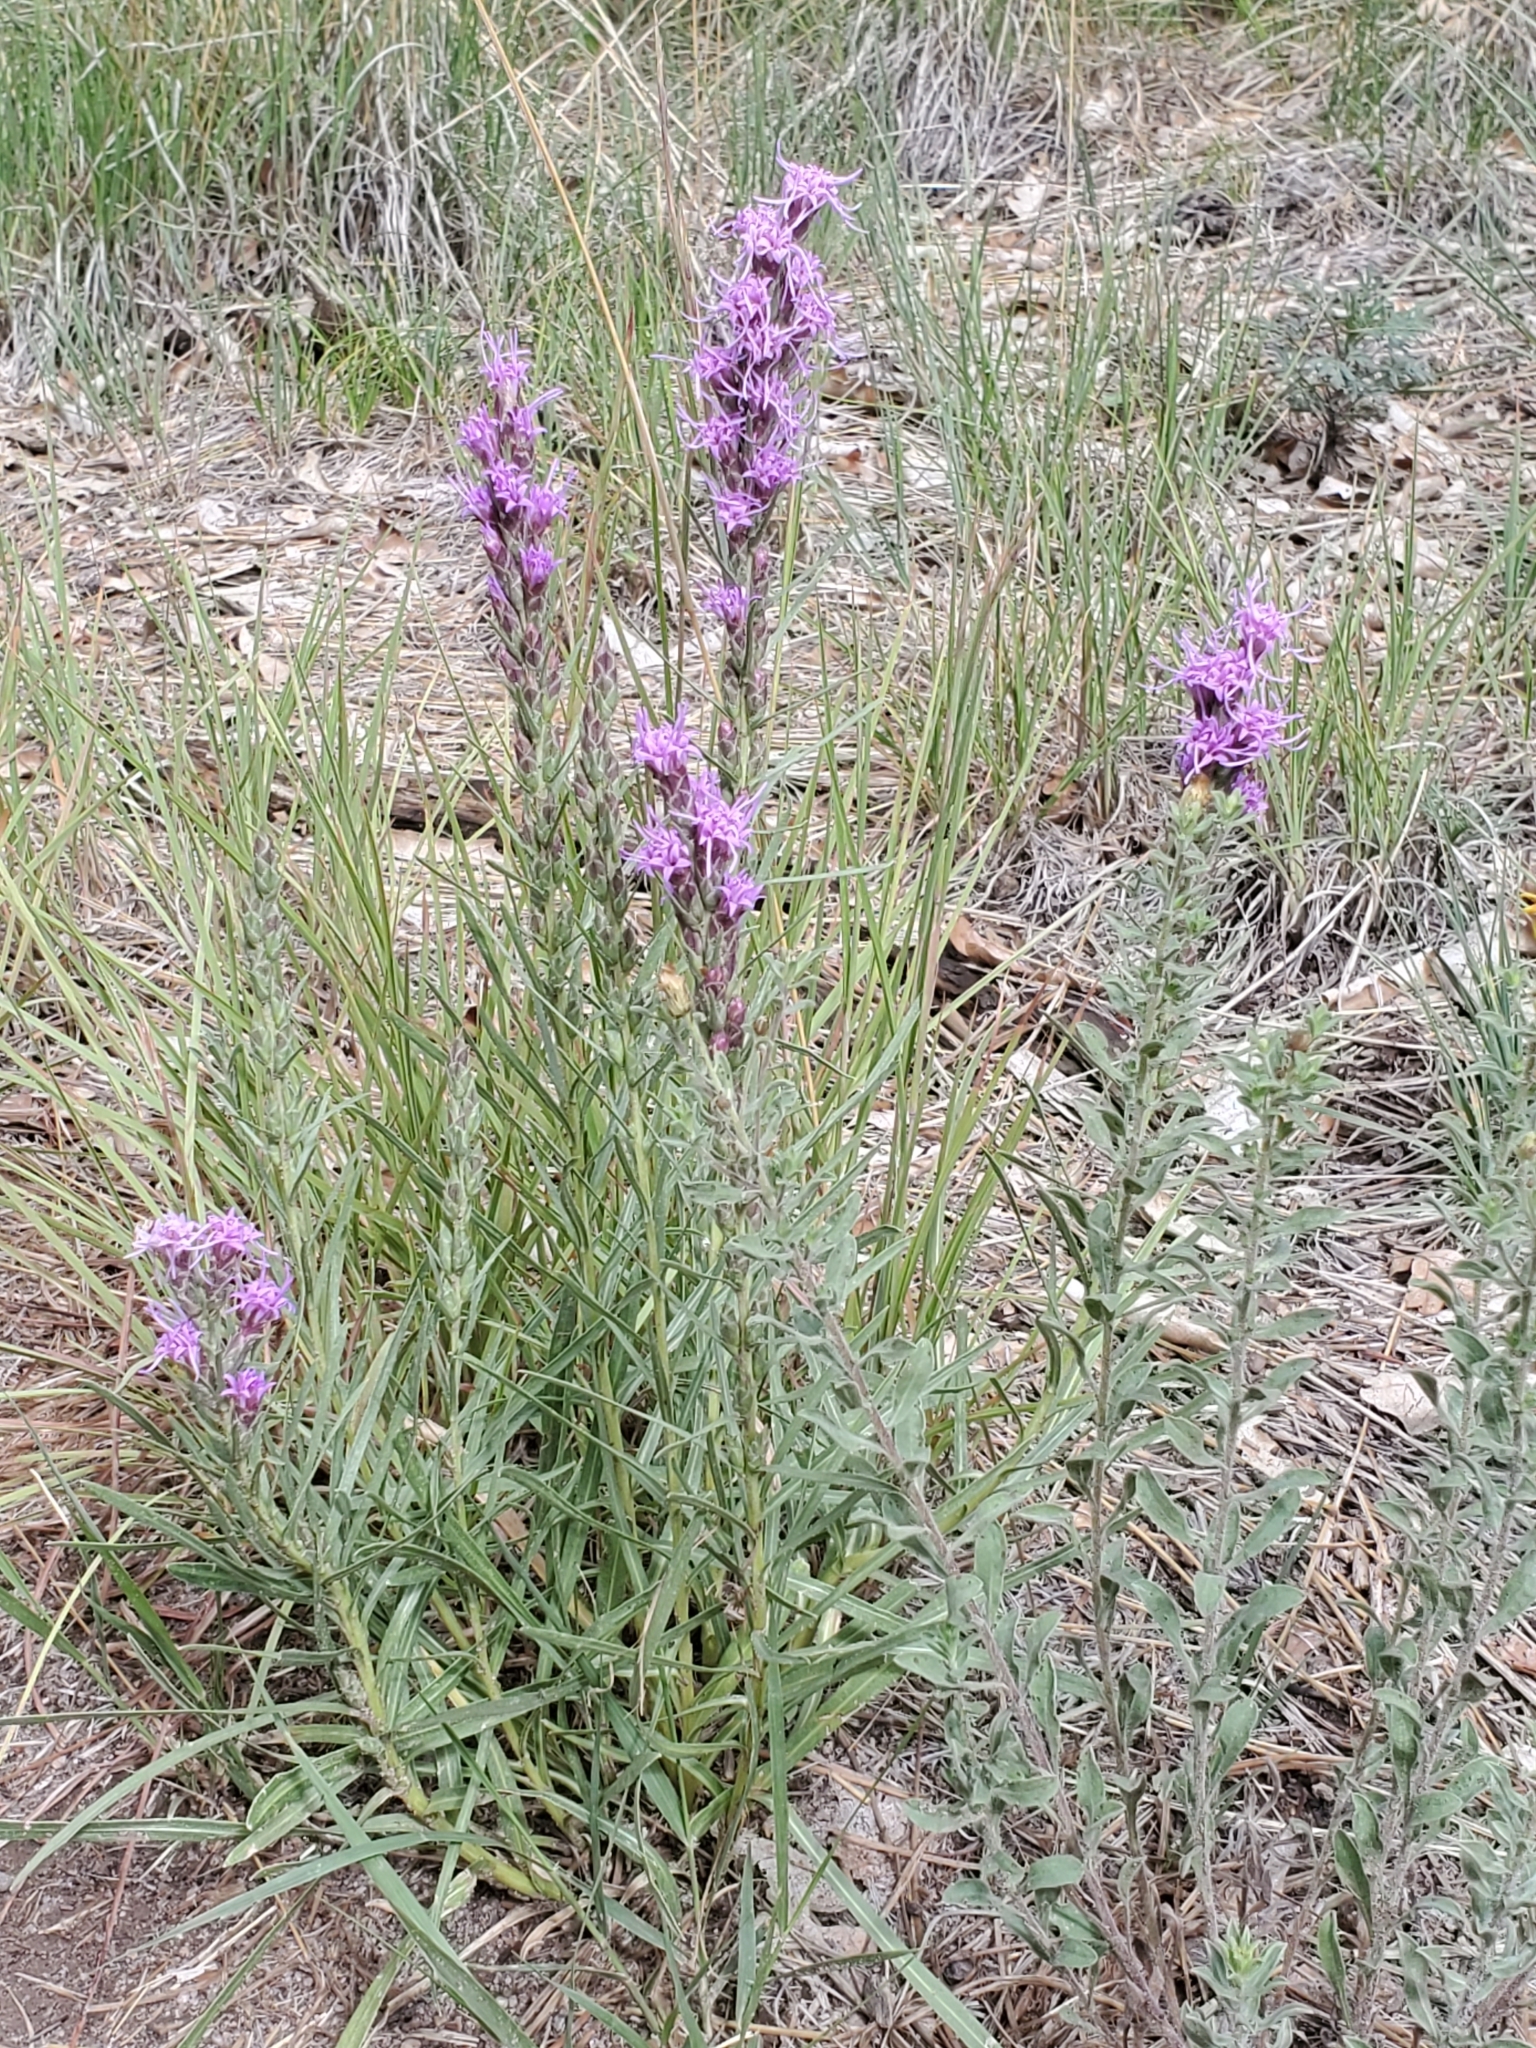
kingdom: Plantae
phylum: Tracheophyta
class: Magnoliopsida
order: Asterales
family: Asteraceae
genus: Liatris
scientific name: Liatris punctata
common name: Dotted gayfeather
